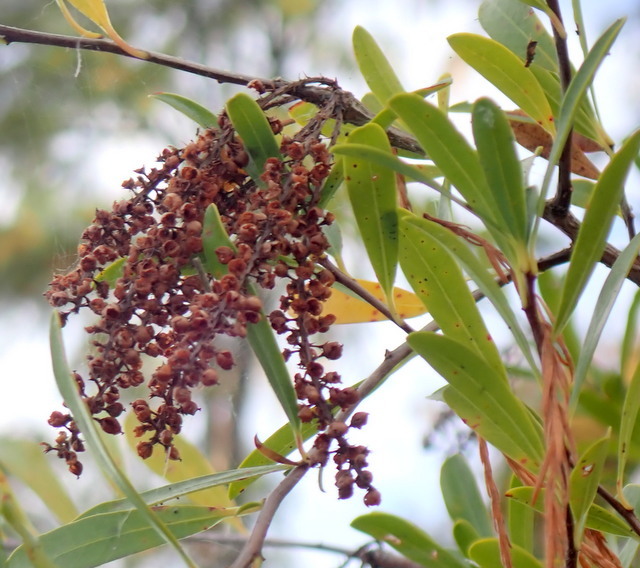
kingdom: Plantae
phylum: Tracheophyta
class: Magnoliopsida
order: Ericales
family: Cyrillaceae
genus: Cyrilla
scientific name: Cyrilla racemiflora
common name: Black titi
